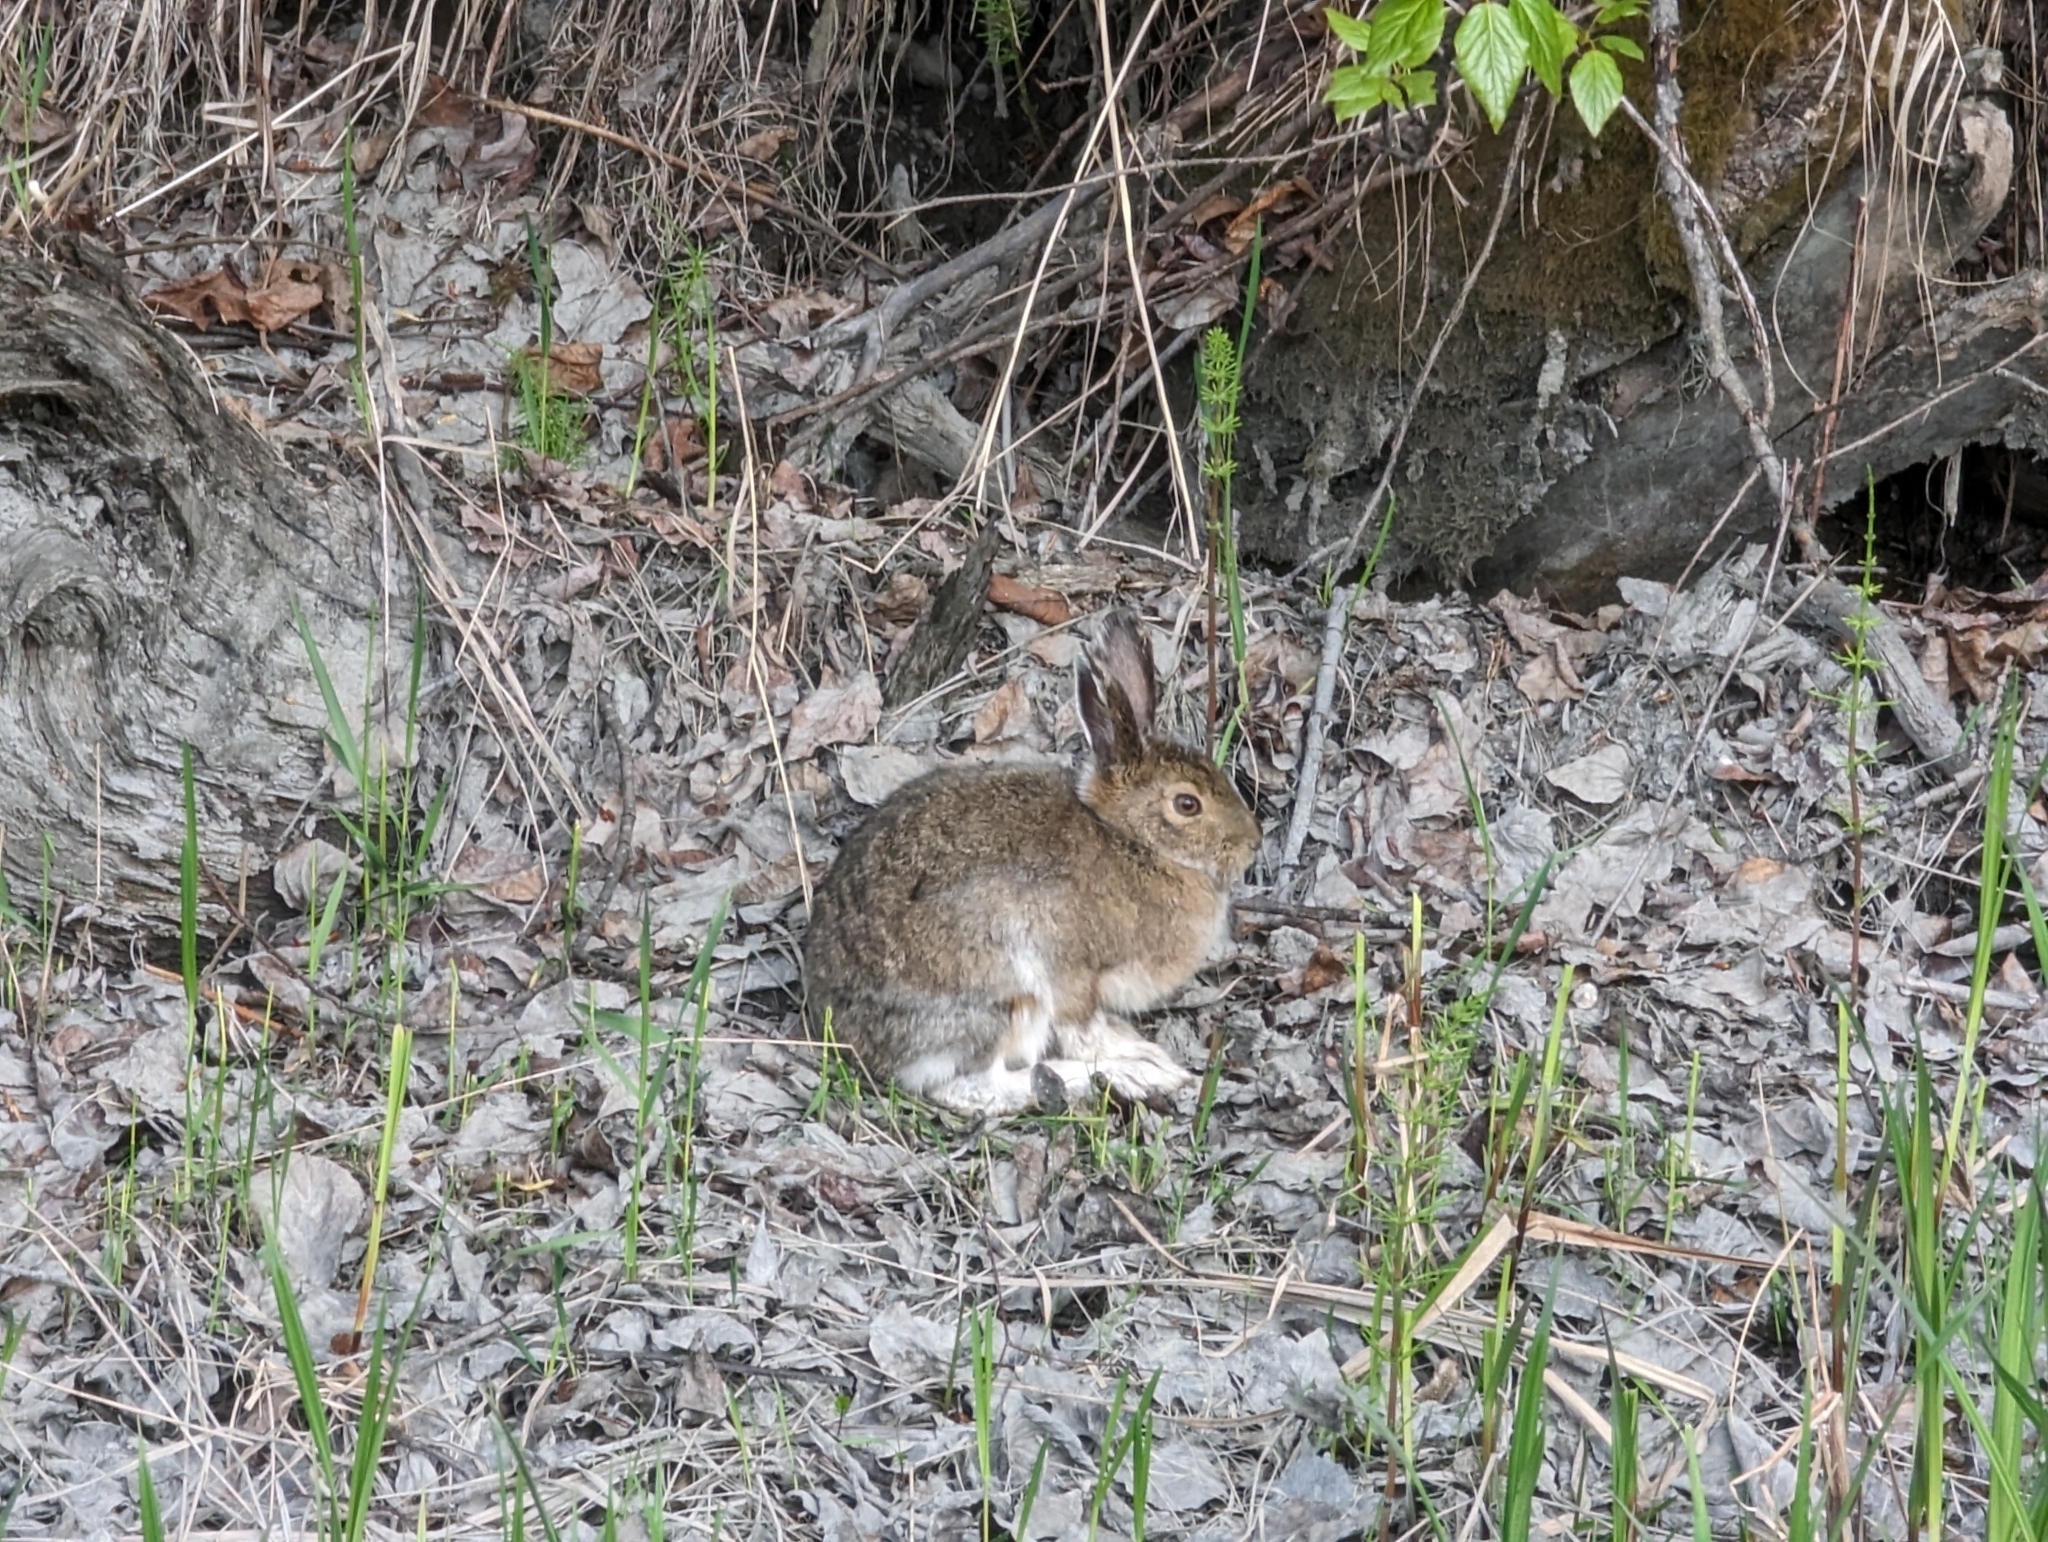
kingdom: Animalia
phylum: Chordata
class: Mammalia
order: Lagomorpha
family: Leporidae
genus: Lepus
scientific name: Lepus americanus
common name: Snowshoe hare
